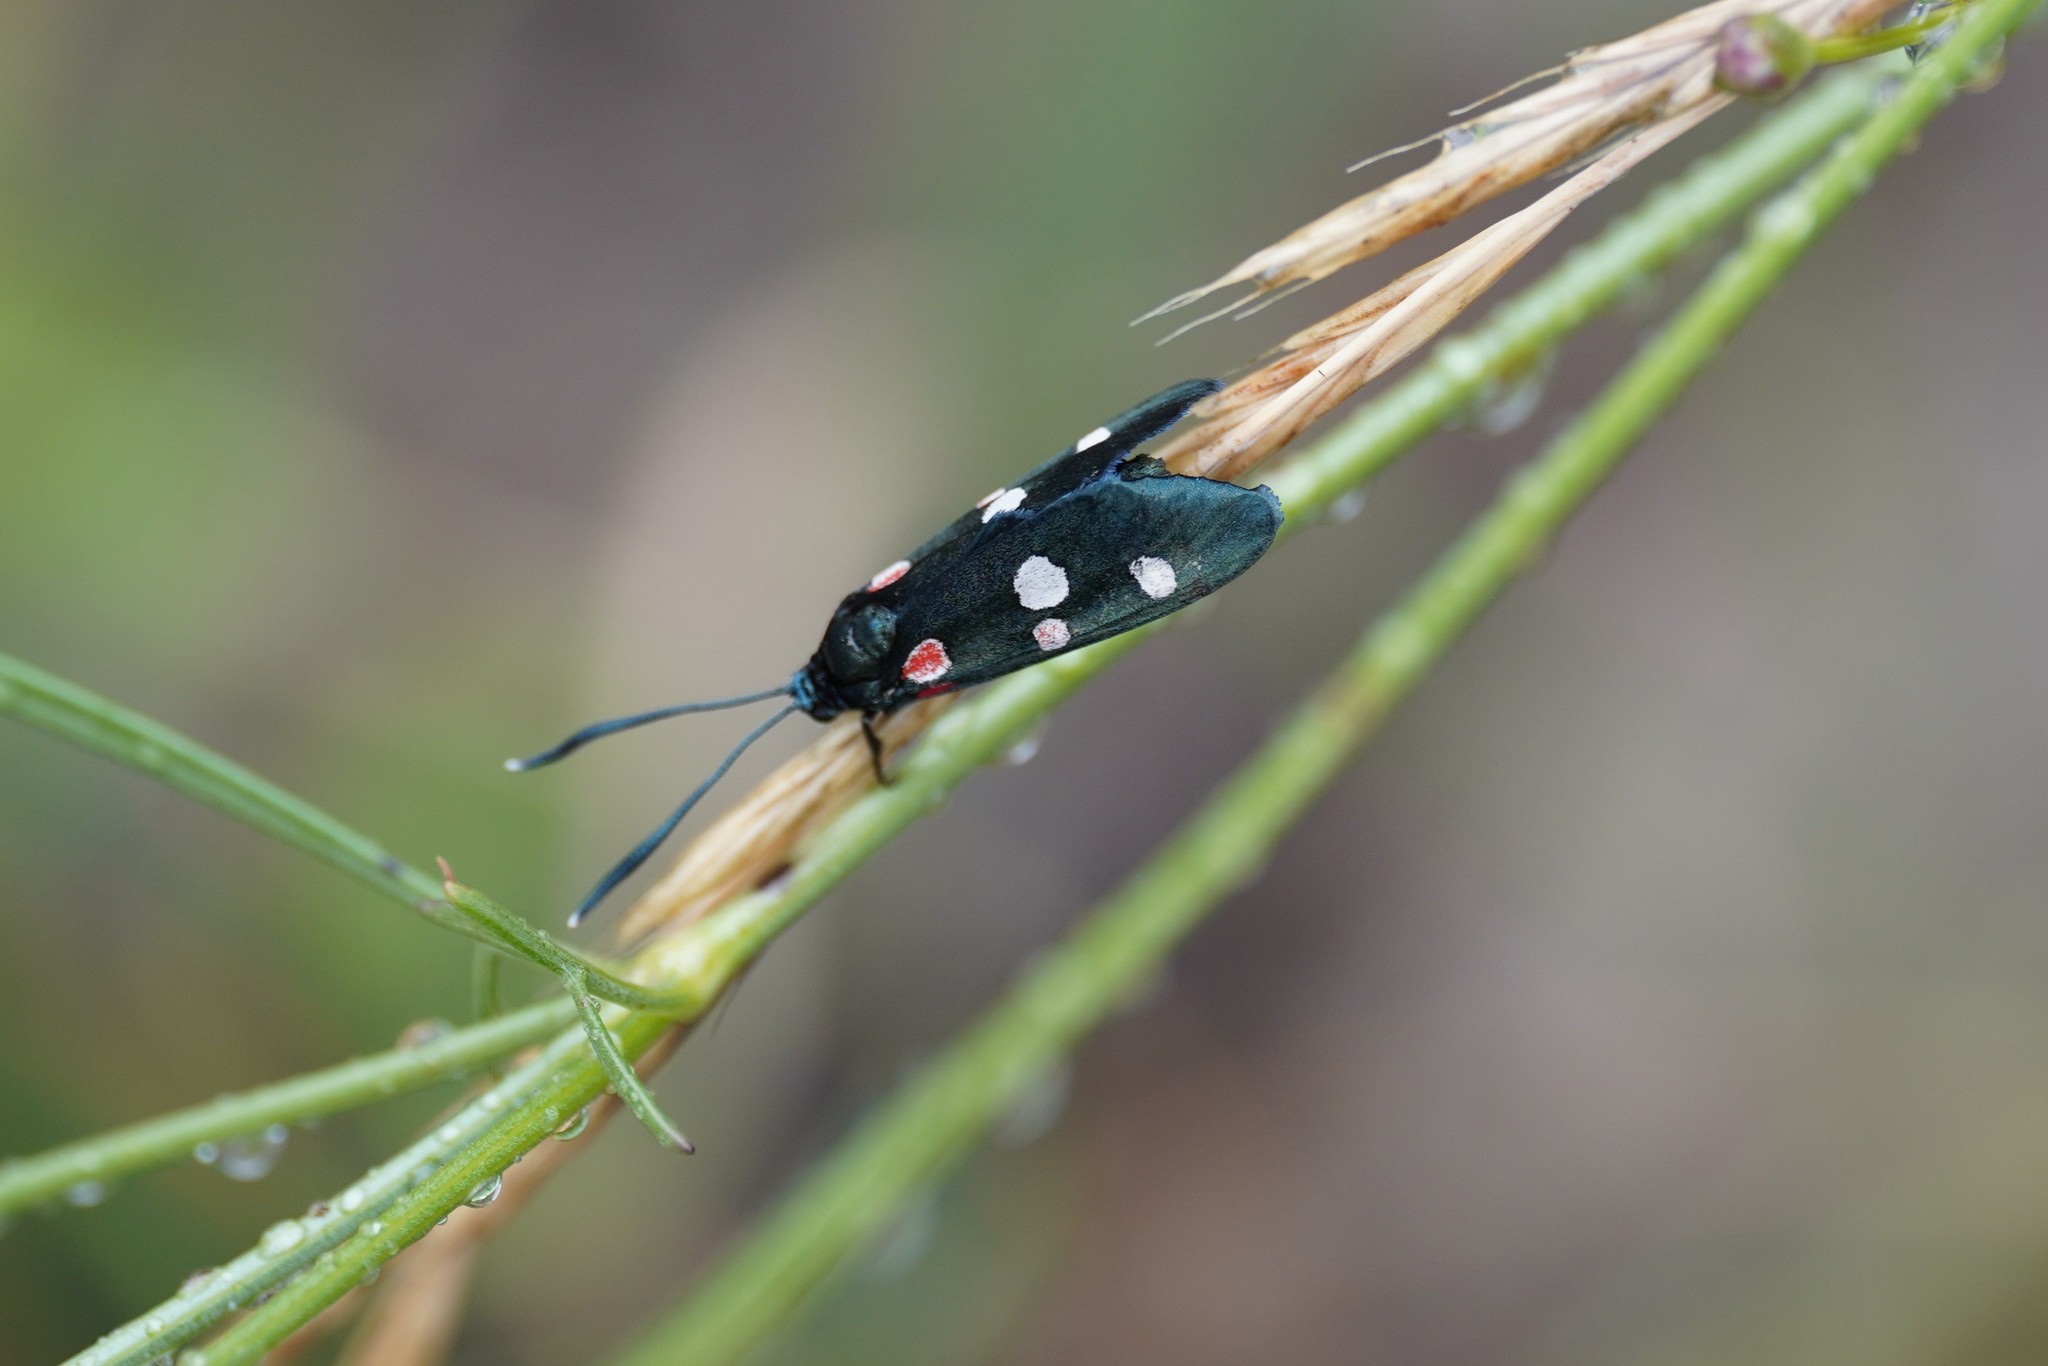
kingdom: Animalia
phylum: Arthropoda
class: Insecta
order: Lepidoptera
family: Zygaenidae
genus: Zygaena
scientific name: Zygaena ephialtes
